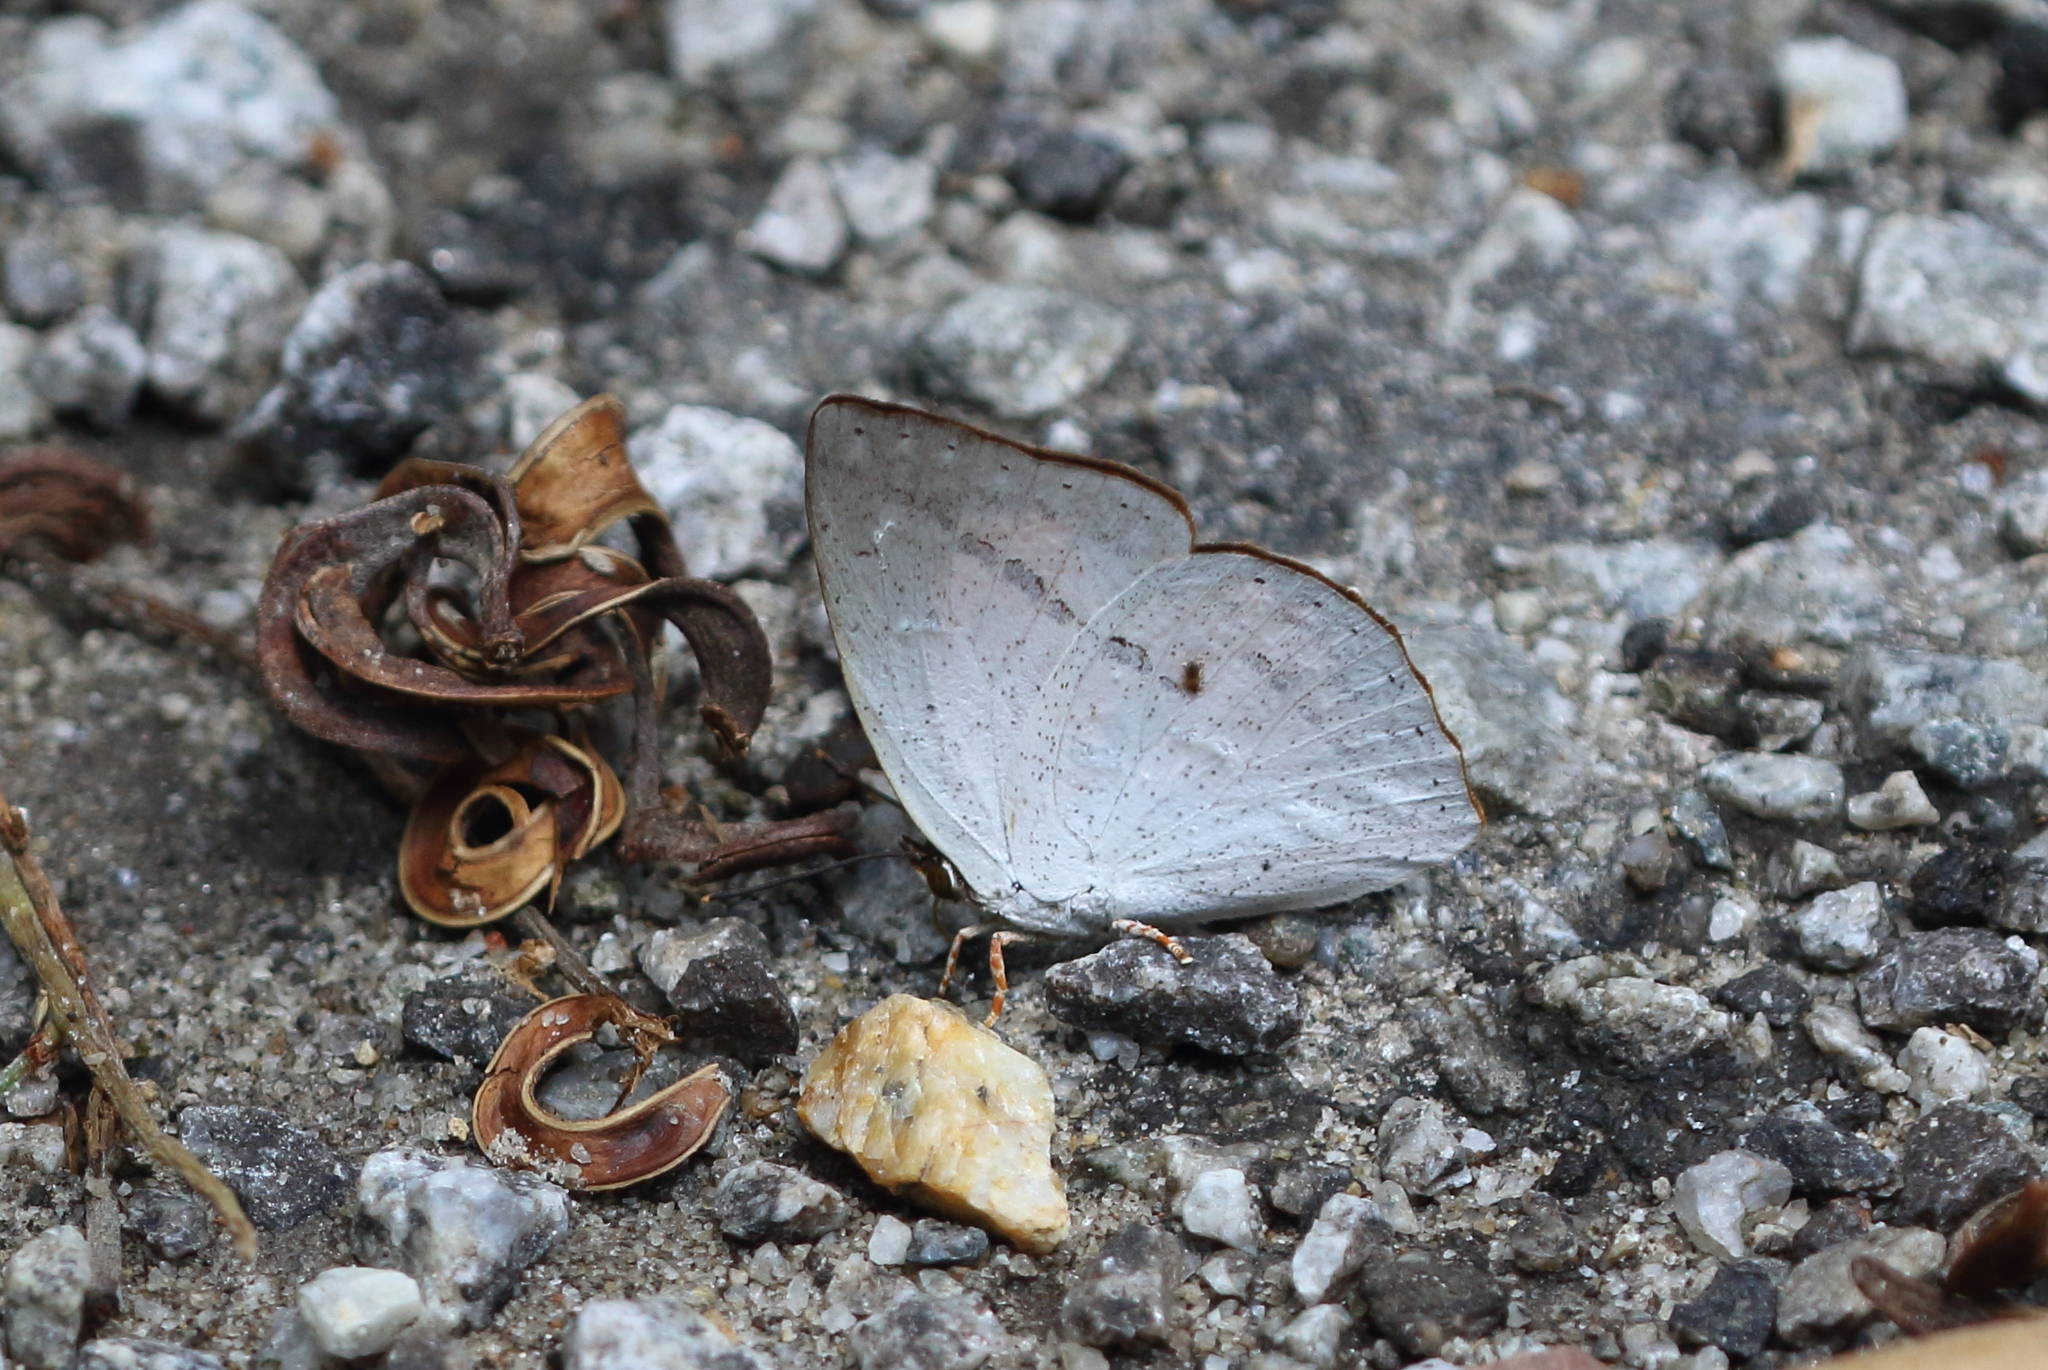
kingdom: Animalia
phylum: Arthropoda
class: Insecta
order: Lepidoptera
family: Lycaenidae
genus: Curetis
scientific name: Curetis bulis
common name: Bright sunbeam
